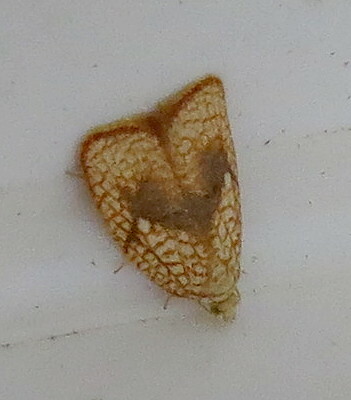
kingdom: Animalia
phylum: Arthropoda
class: Insecta
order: Lepidoptera
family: Tortricidae
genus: Acleris
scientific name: Acleris forsskaleana
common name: Maple button
